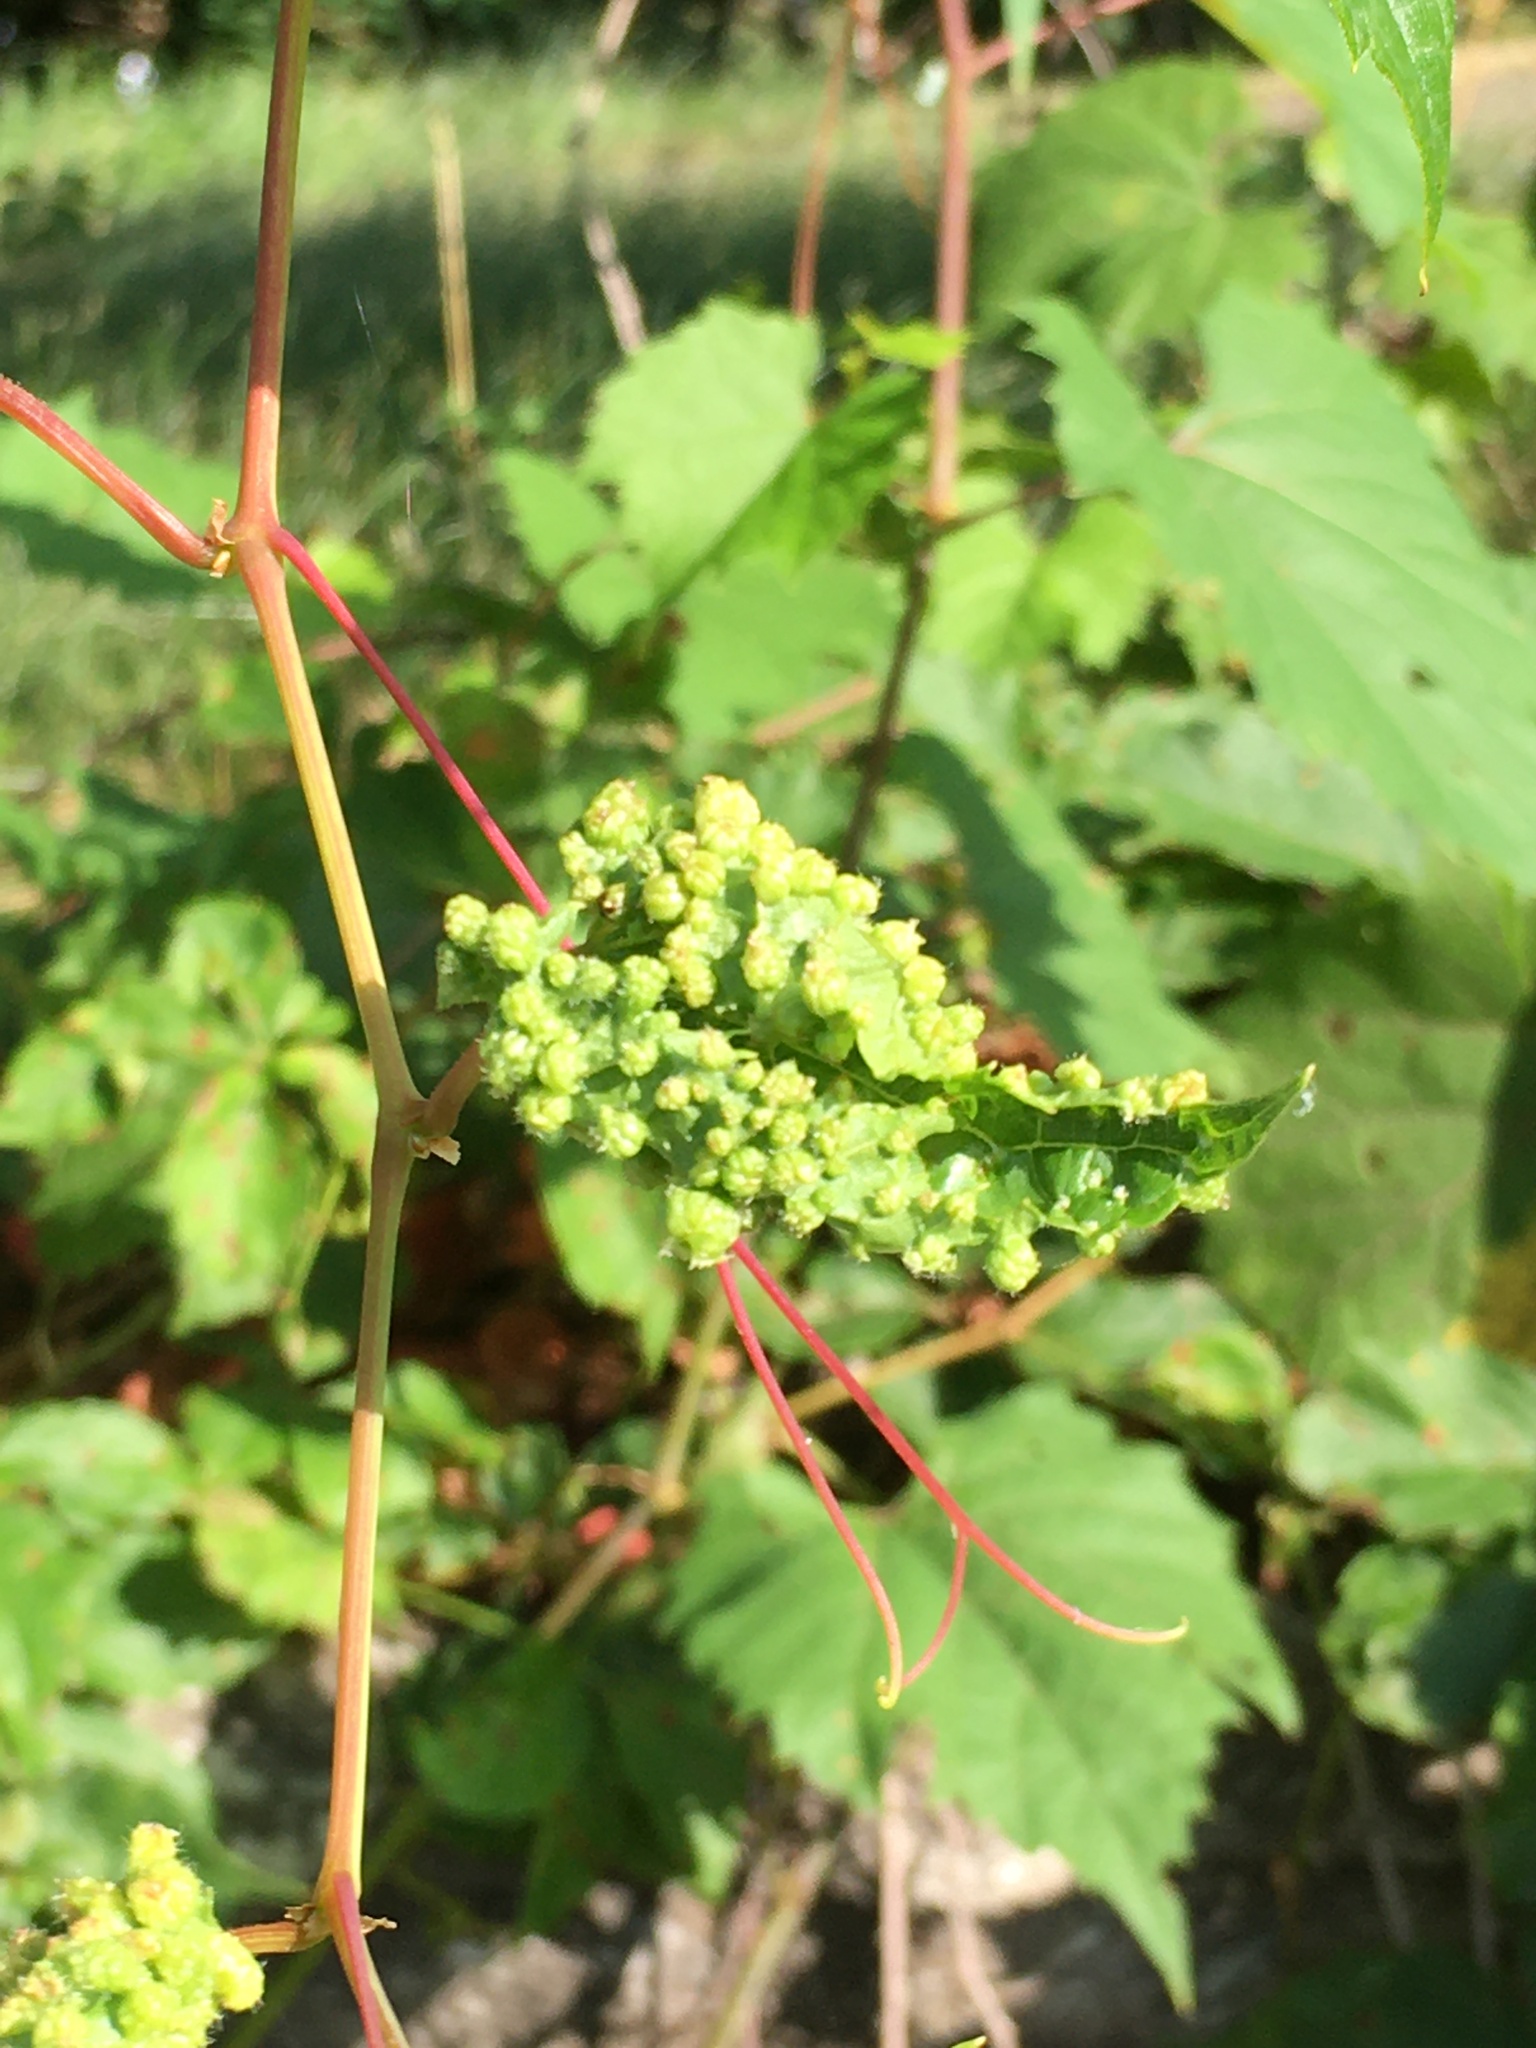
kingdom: Animalia
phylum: Arthropoda
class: Insecta
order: Hemiptera
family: Phylloxeridae
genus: Daktulosphaira
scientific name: Daktulosphaira vitifoliae
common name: Grape phylloxera
